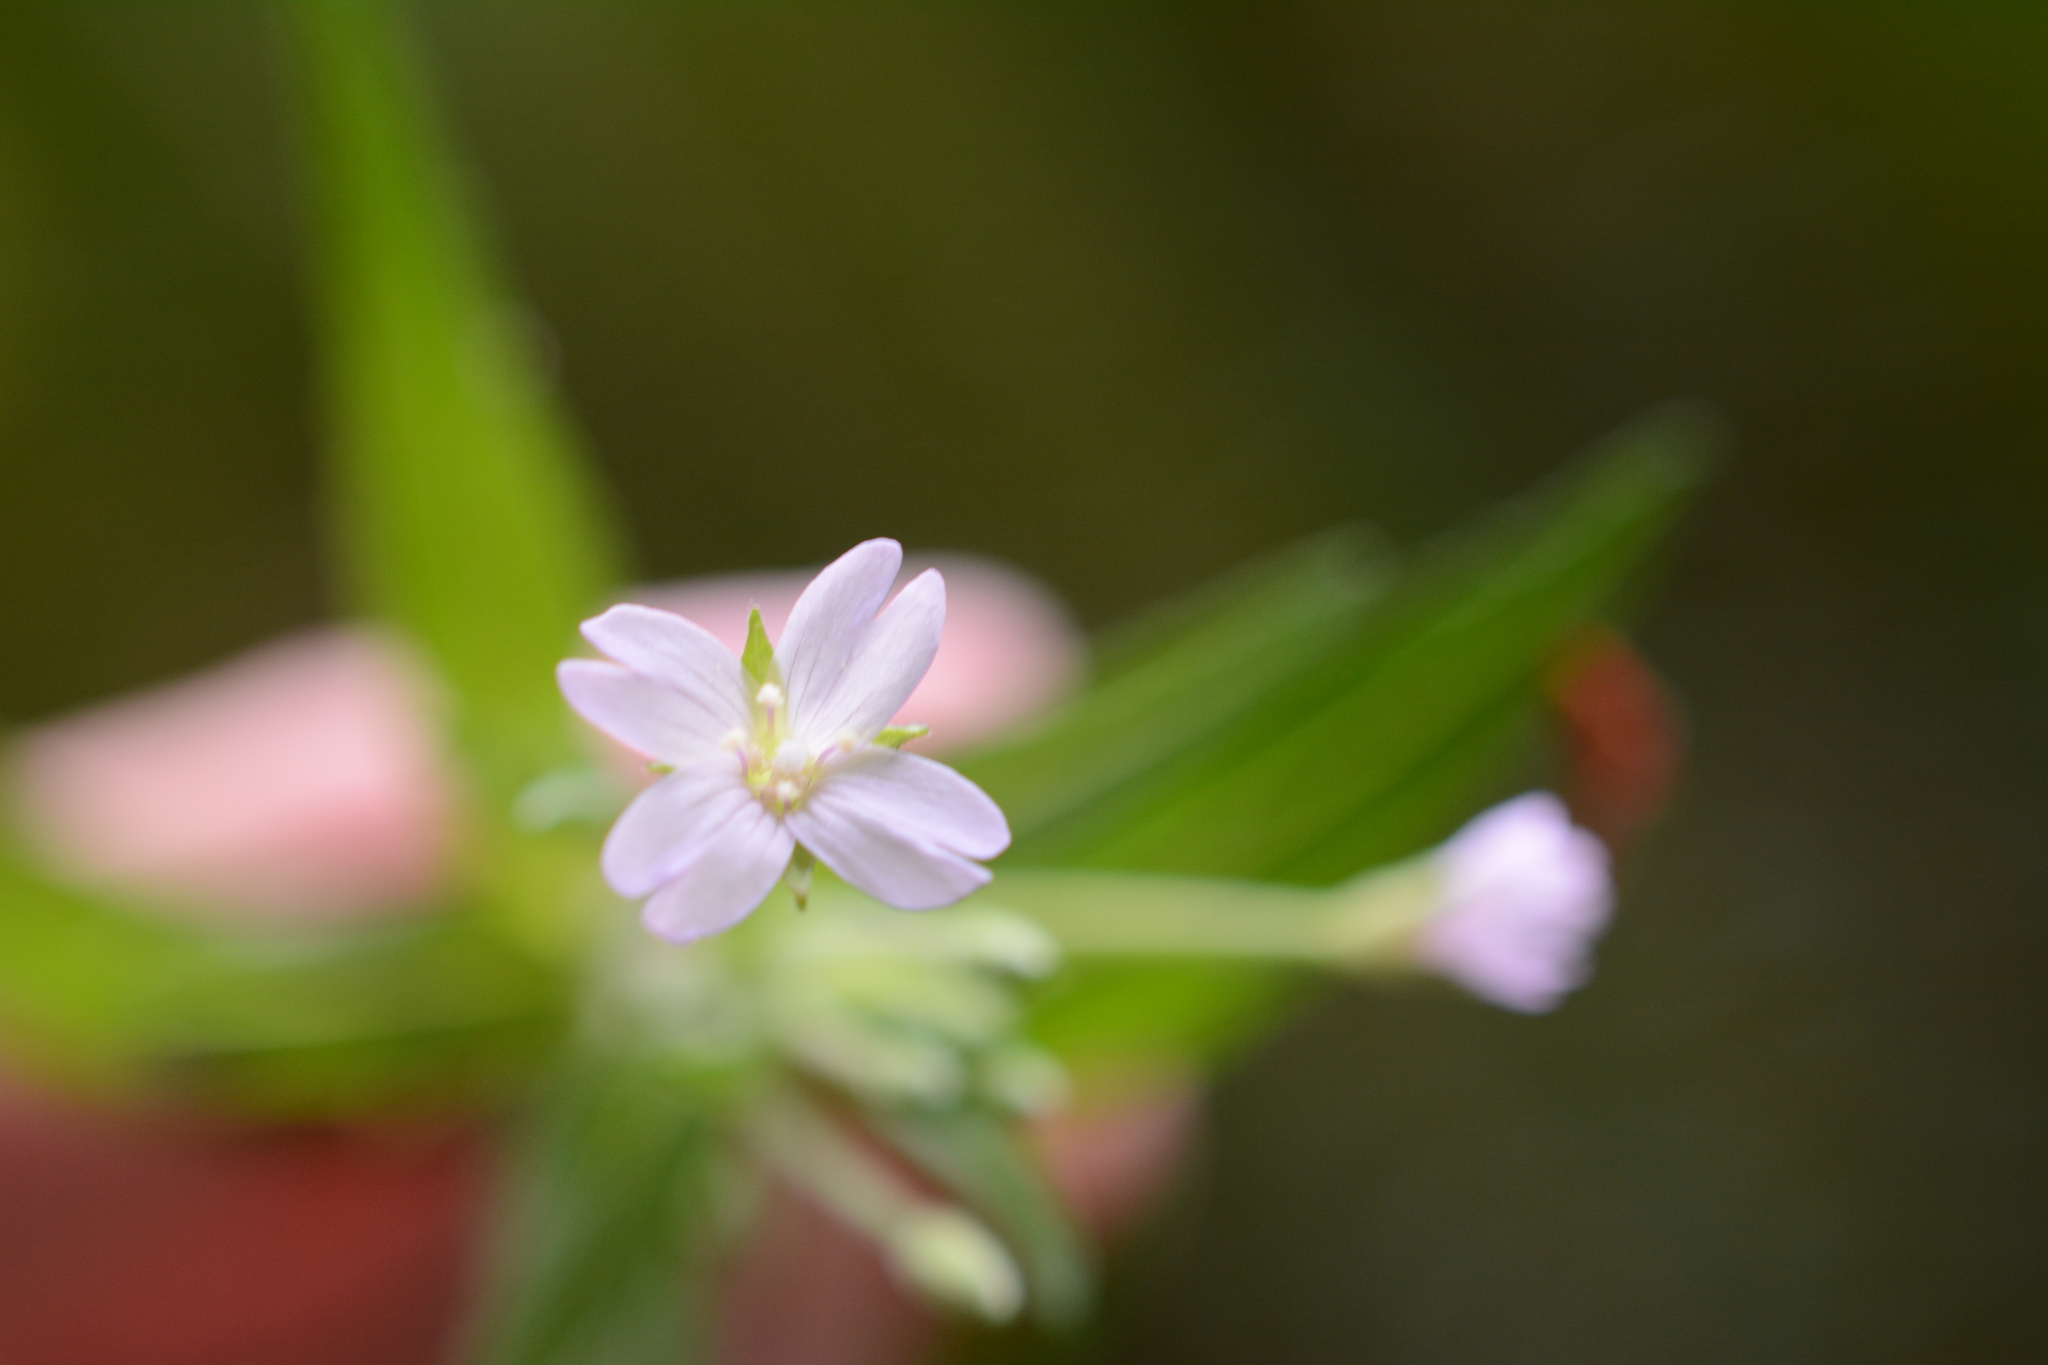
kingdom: Plantae
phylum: Tracheophyta
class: Magnoliopsida
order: Myrtales
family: Onagraceae
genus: Epilobium
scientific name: Epilobium ciliatum
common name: American willowherb
